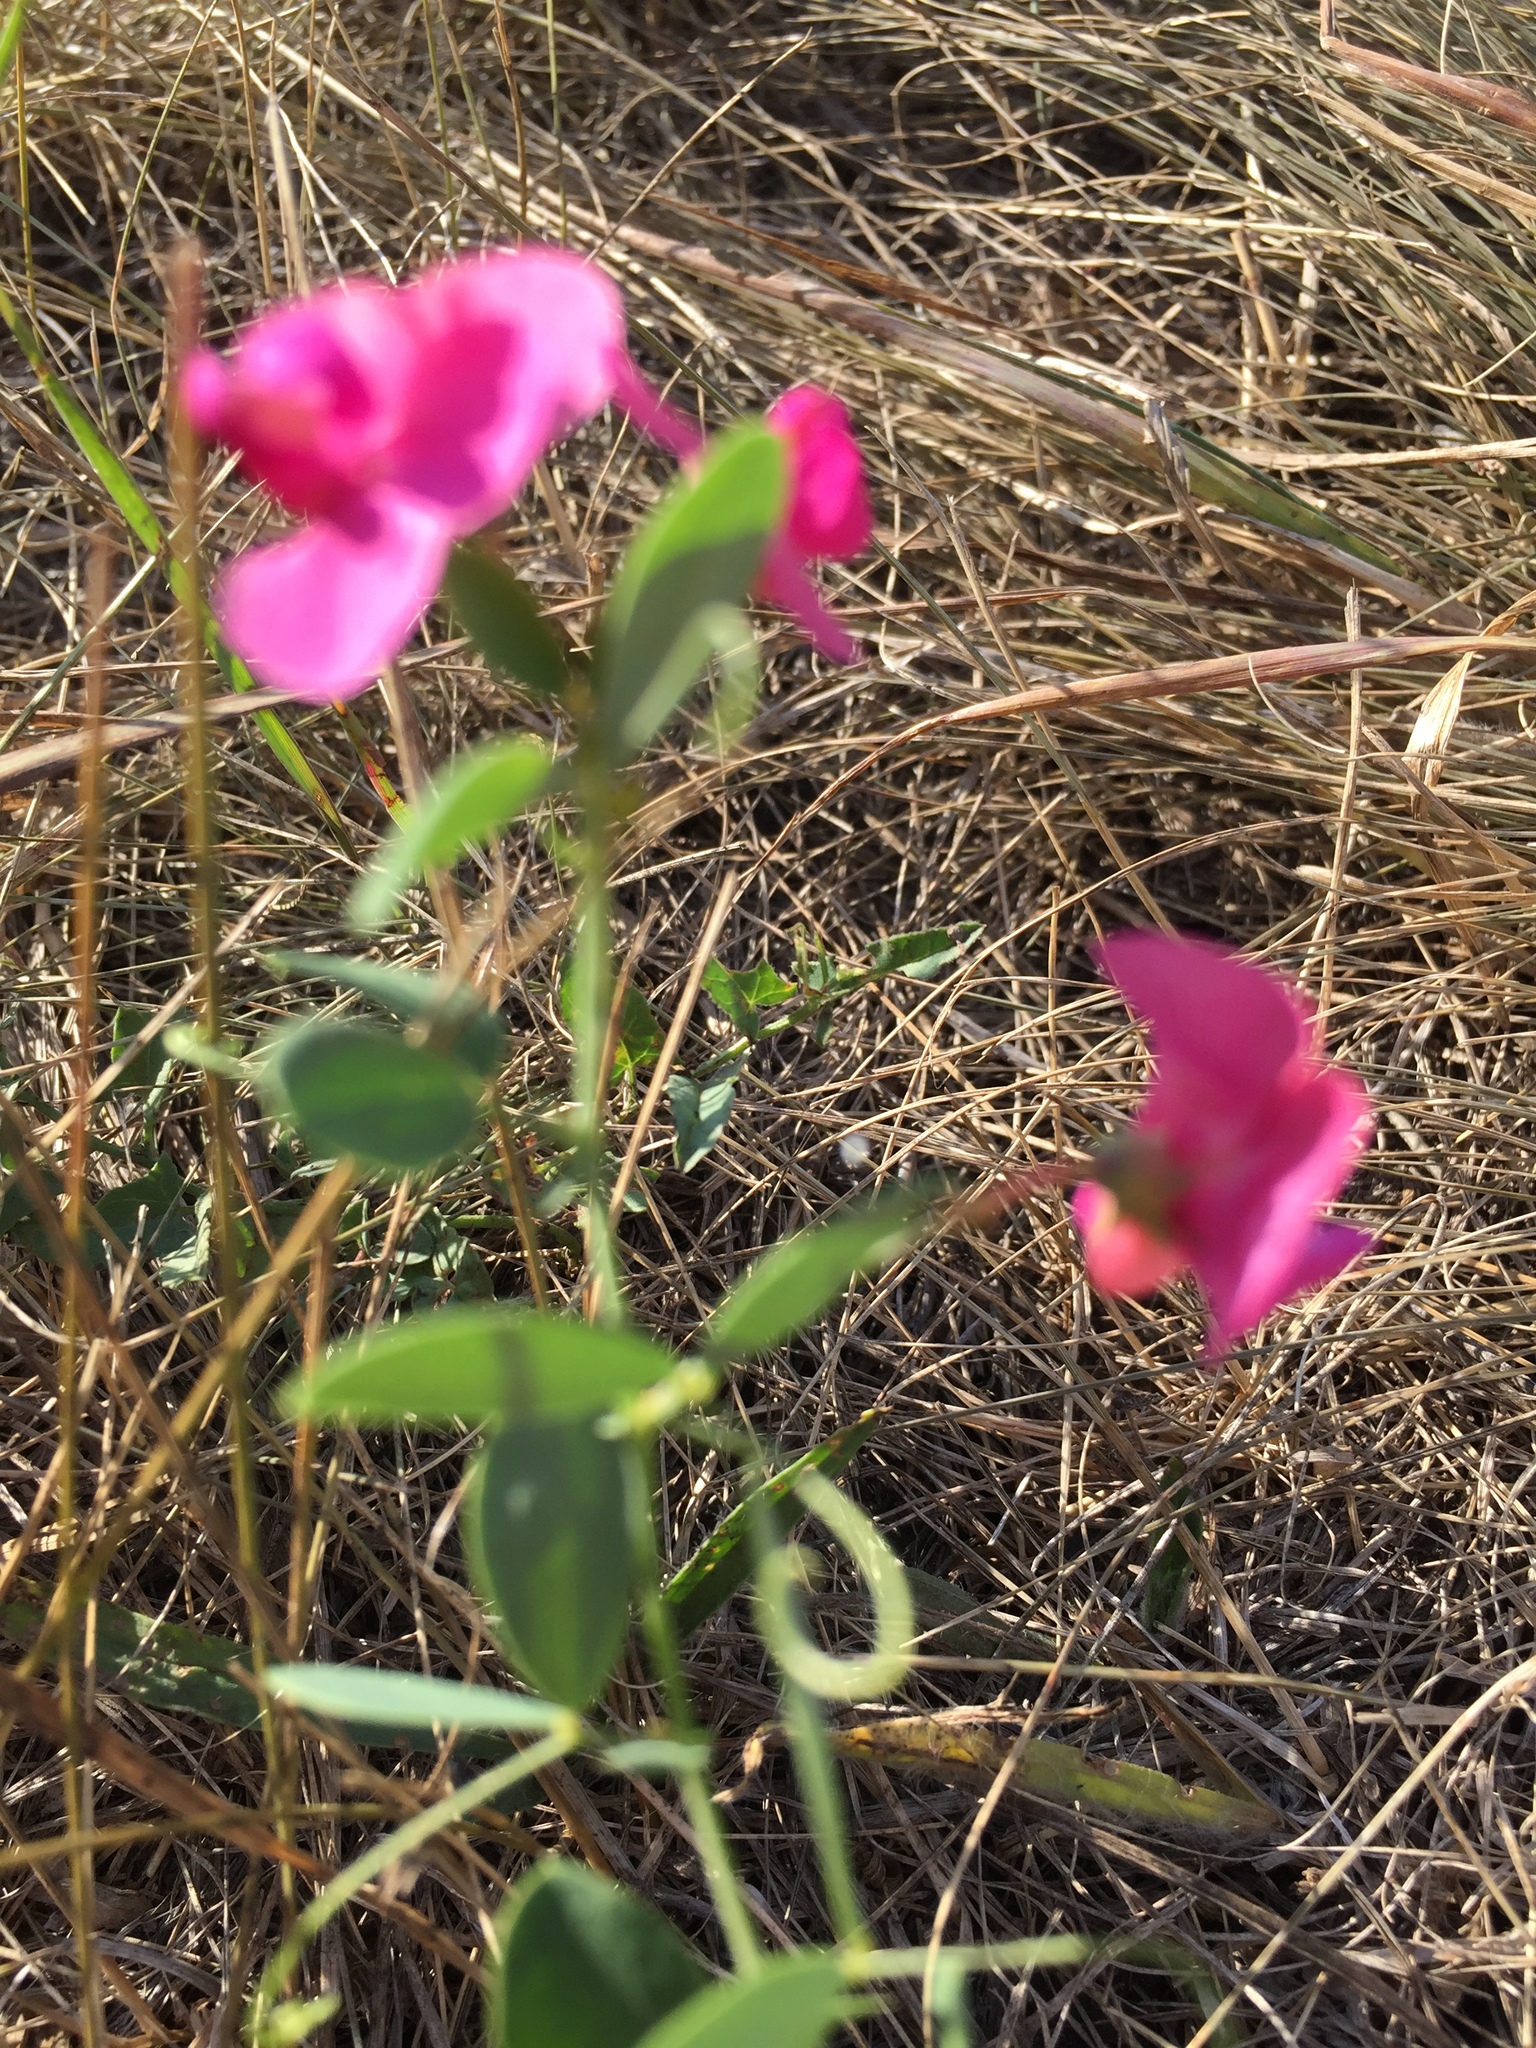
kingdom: Plantae
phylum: Tracheophyta
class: Magnoliopsida
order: Fabales
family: Fabaceae
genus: Lathyrus
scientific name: Lathyrus tuberosus
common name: Tuberous pea
